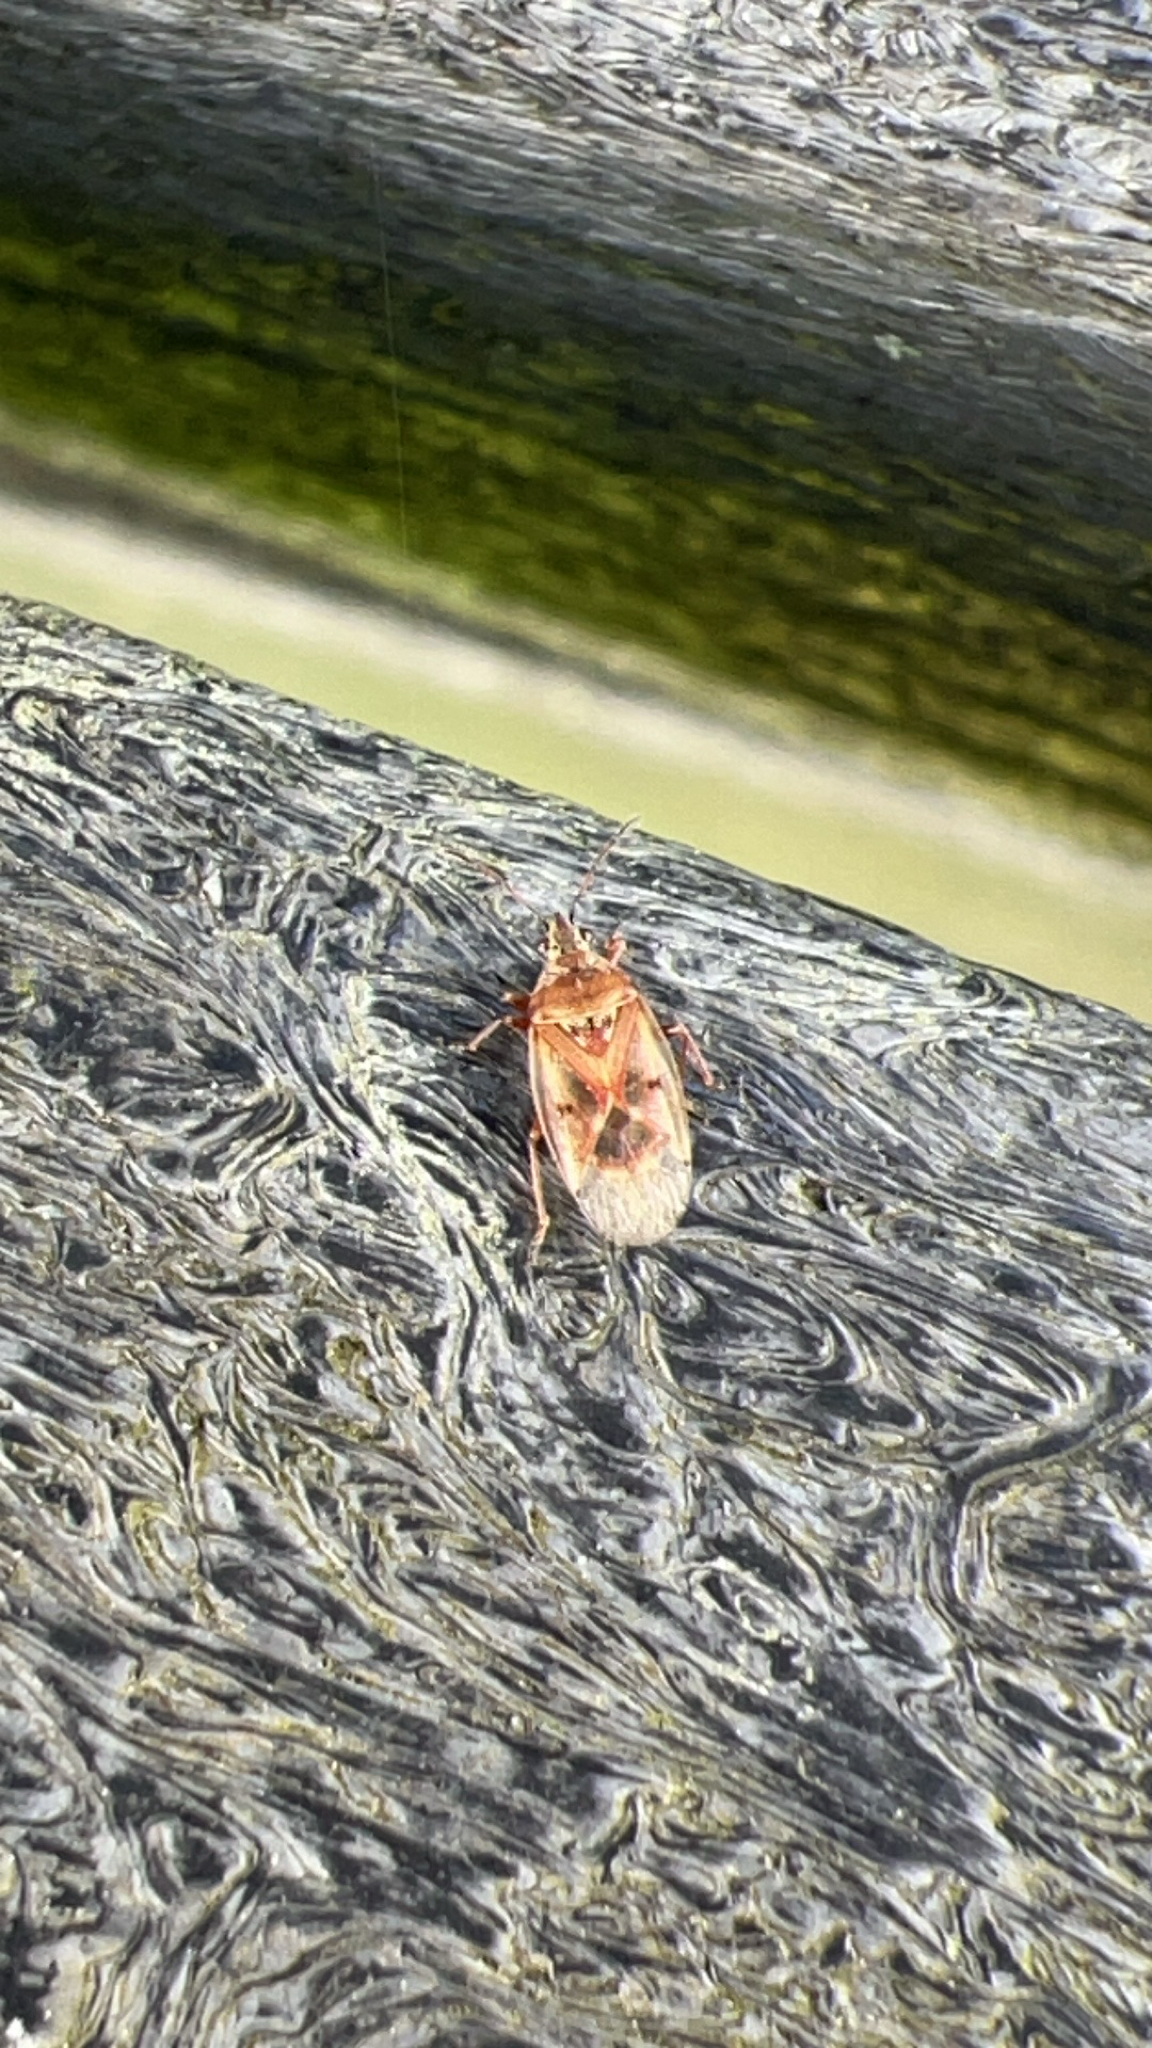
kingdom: Animalia
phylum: Arthropoda
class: Insecta
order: Hemiptera
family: Lygaeidae
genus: Kleidocerys
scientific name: Kleidocerys resedae
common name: Birch catkin bug
